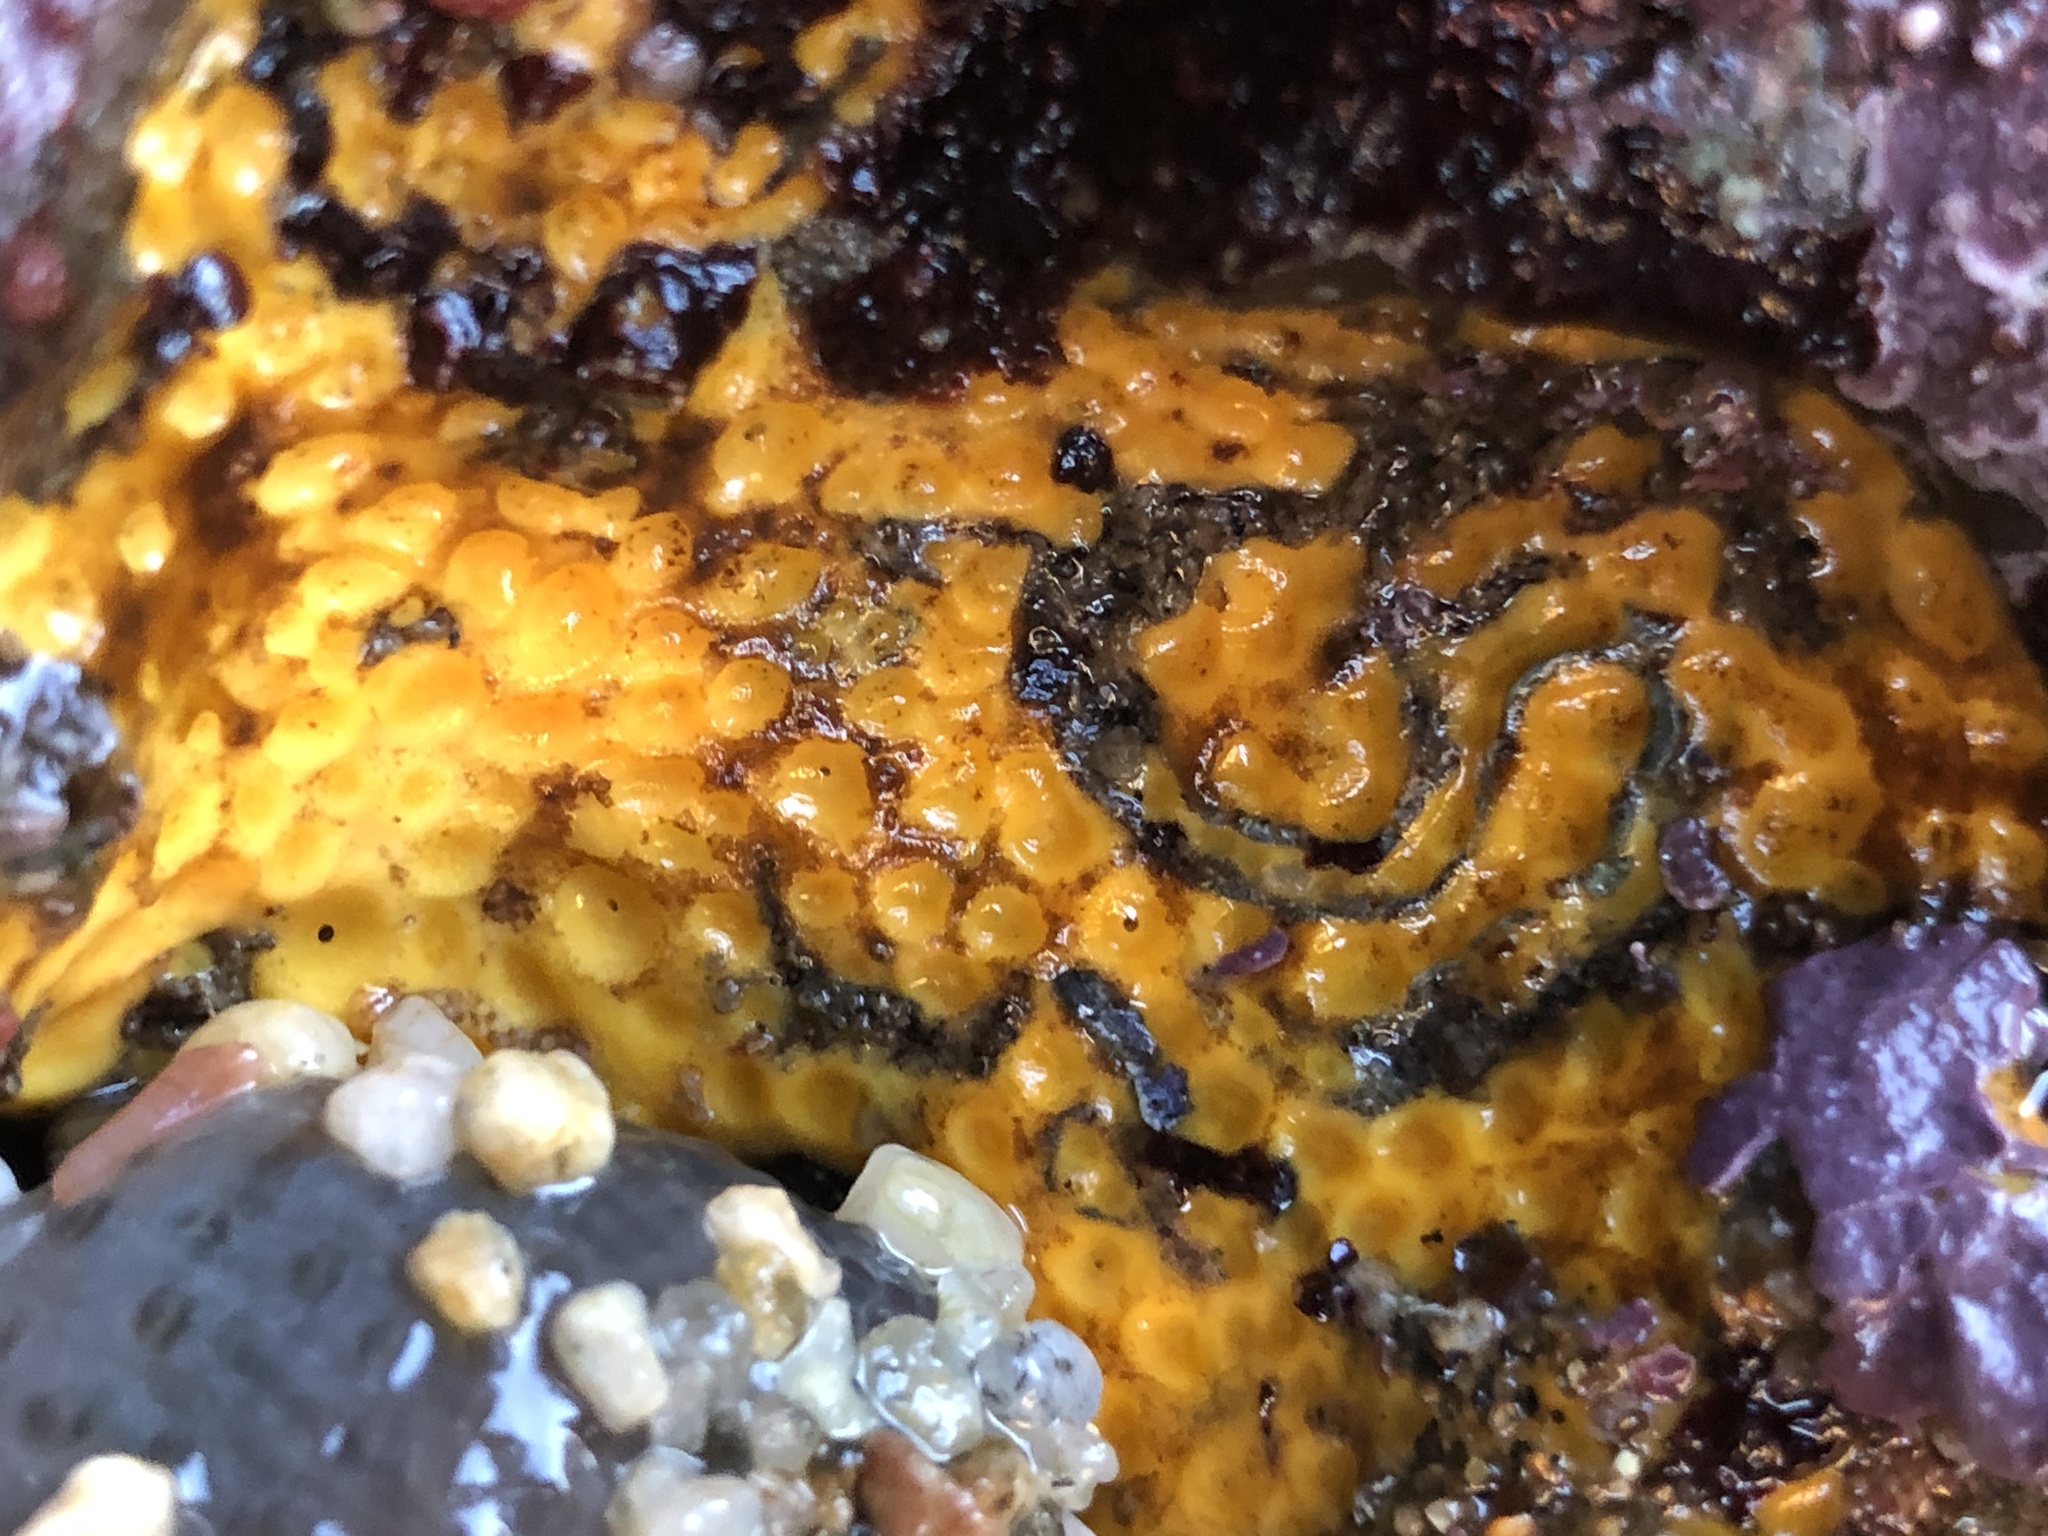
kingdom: Animalia
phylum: Porifera
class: Demospongiae
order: Clionaida
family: Clionaidae
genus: Cliona
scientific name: Cliona californiana
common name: California boring horny sponge
